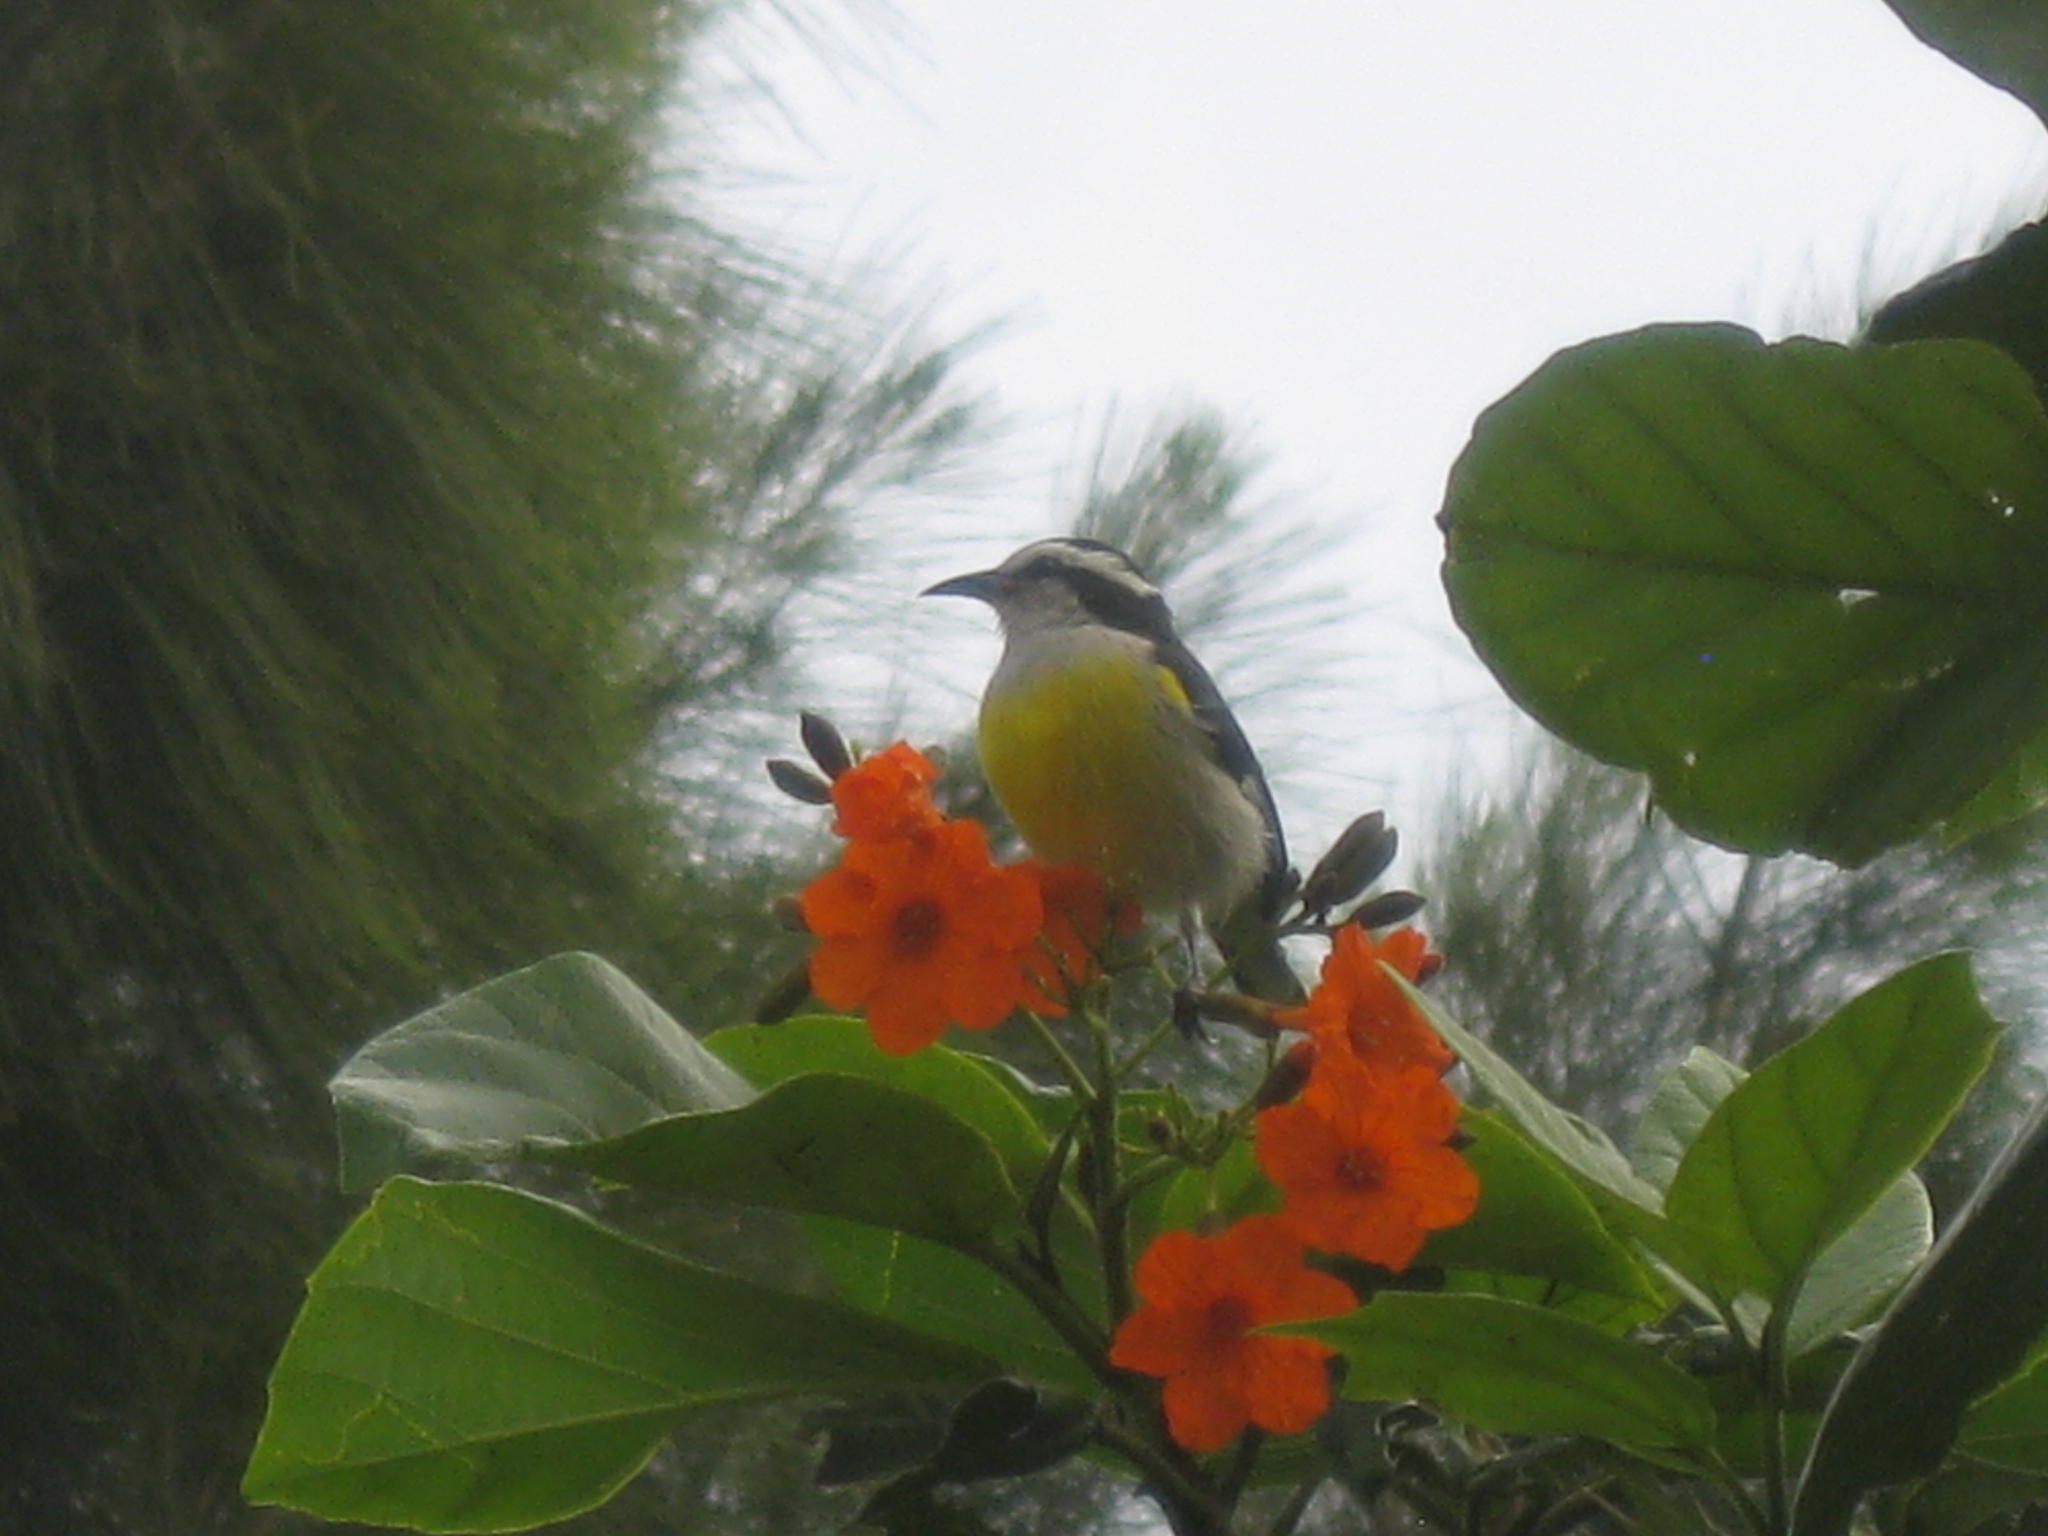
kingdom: Animalia
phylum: Chordata
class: Aves
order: Passeriformes
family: Thraupidae
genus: Coereba
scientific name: Coereba flaveola
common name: Bananaquit
